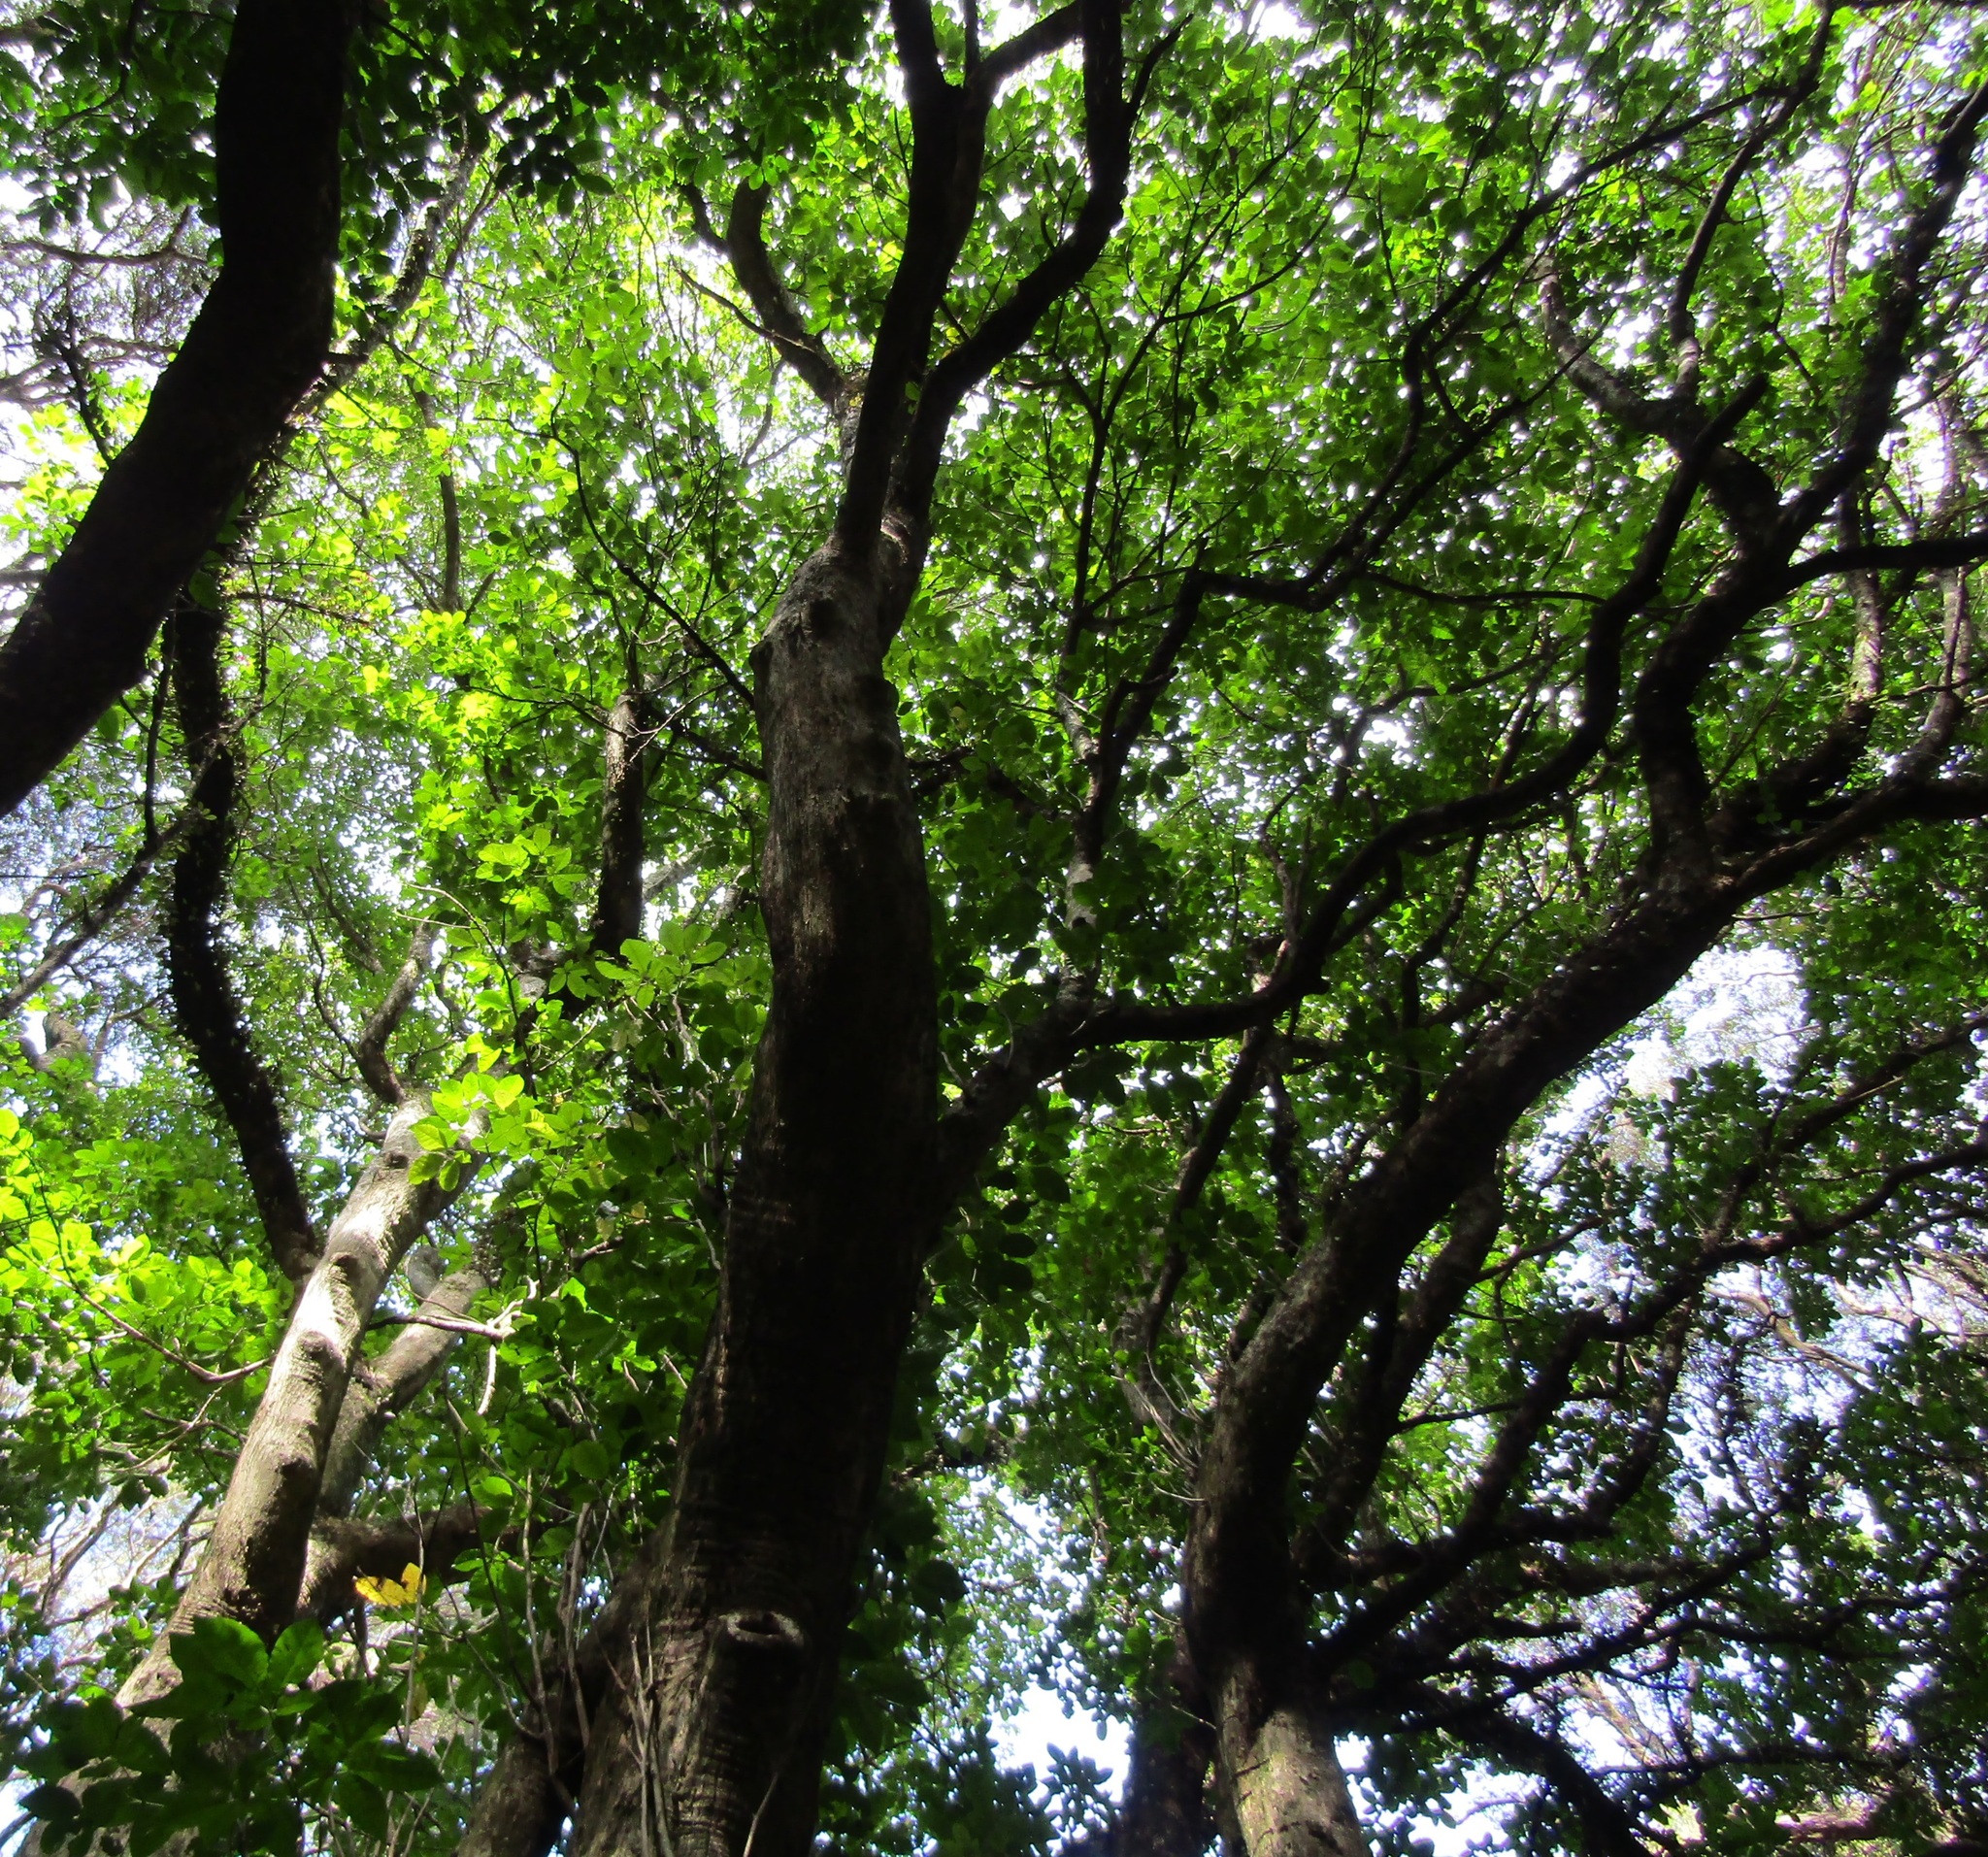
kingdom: Plantae
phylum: Tracheophyta
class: Magnoliopsida
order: Lamiales
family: Lamiaceae
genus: Vitex
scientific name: Vitex lucens
